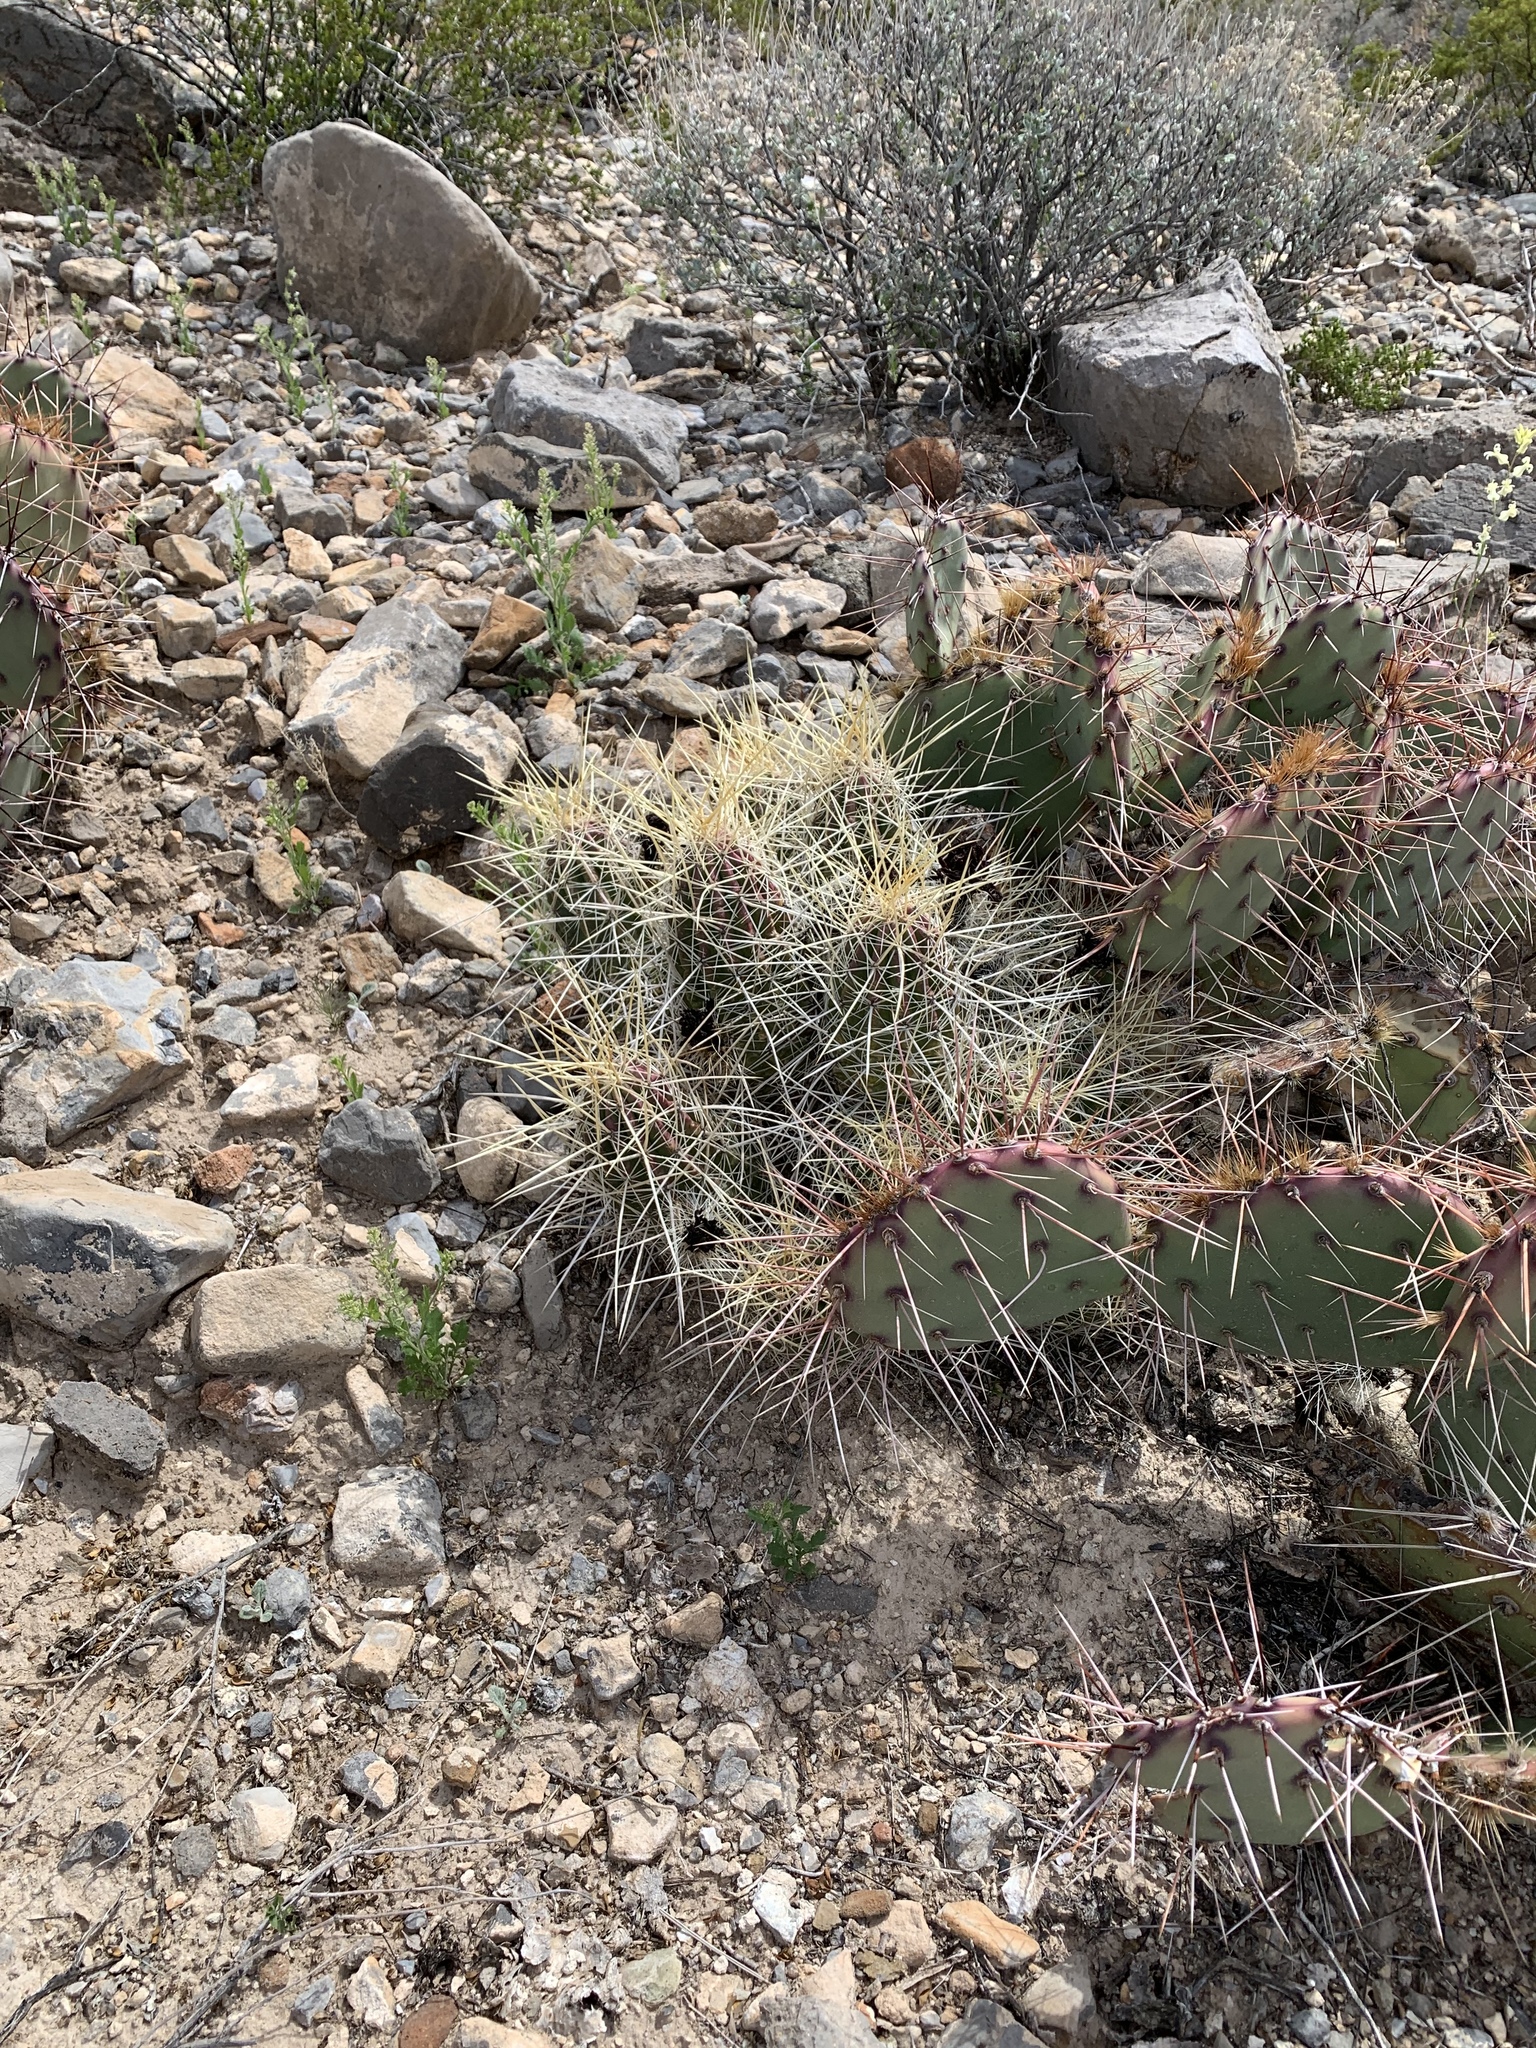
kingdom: Plantae
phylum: Tracheophyta
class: Magnoliopsida
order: Caryophyllales
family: Cactaceae
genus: Echinocereus
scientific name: Echinocereus stramineus
